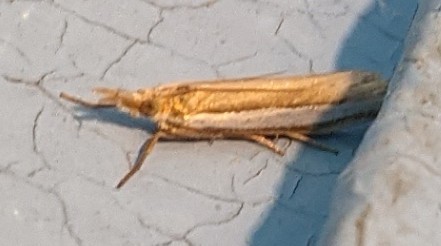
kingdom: Animalia
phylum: Arthropoda
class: Insecta
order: Lepidoptera
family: Crambidae
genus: Crambus
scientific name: Crambus praefectellus
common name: Common grass-veneer
